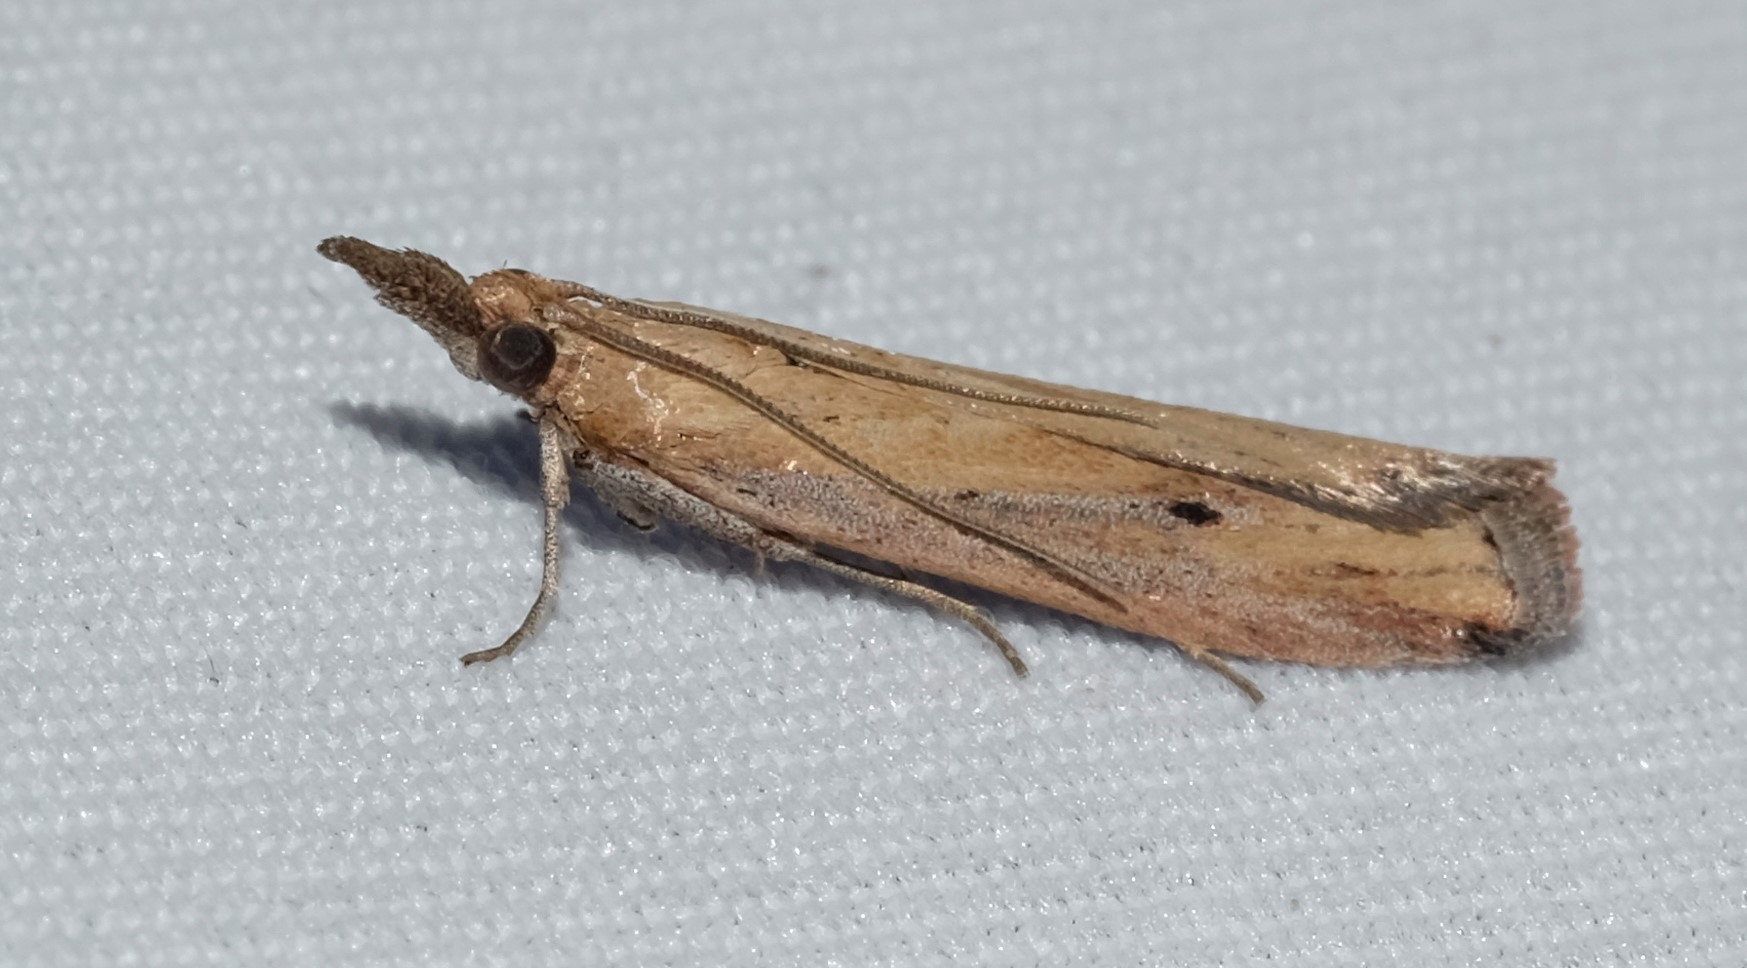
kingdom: Animalia
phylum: Arthropoda
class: Insecta
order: Lepidoptera
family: Pyralidae
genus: Faveria
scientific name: Faveria tritalis
